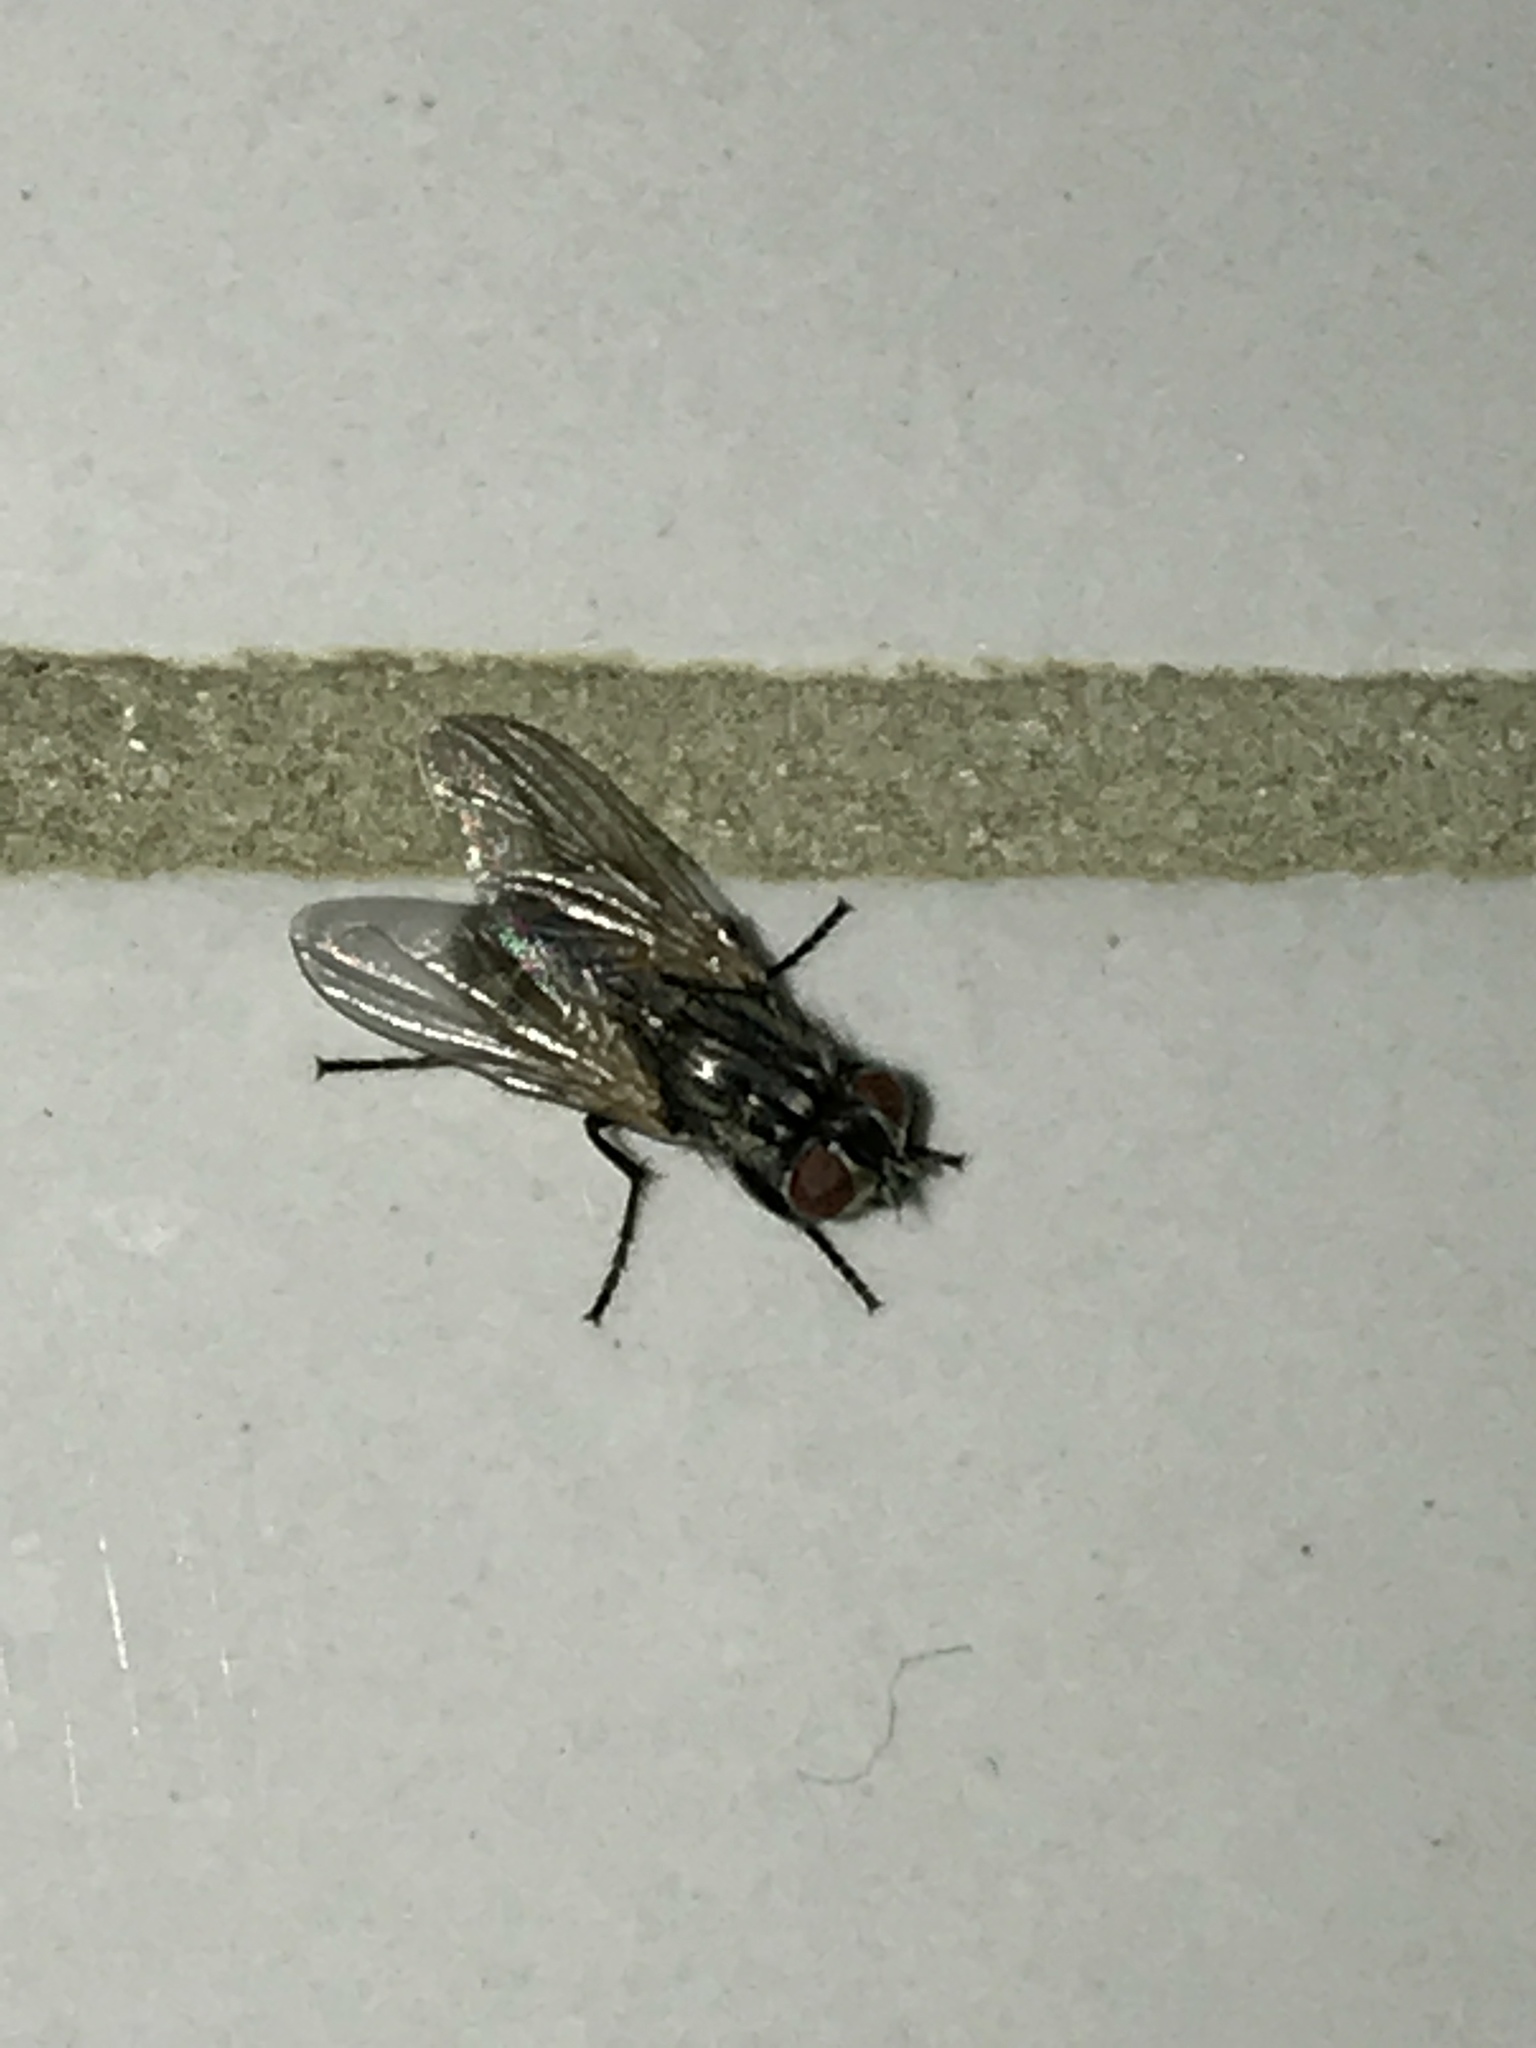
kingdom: Animalia
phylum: Arthropoda
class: Insecta
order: Diptera
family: Muscidae
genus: Musca
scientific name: Musca domestica
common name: House fly
